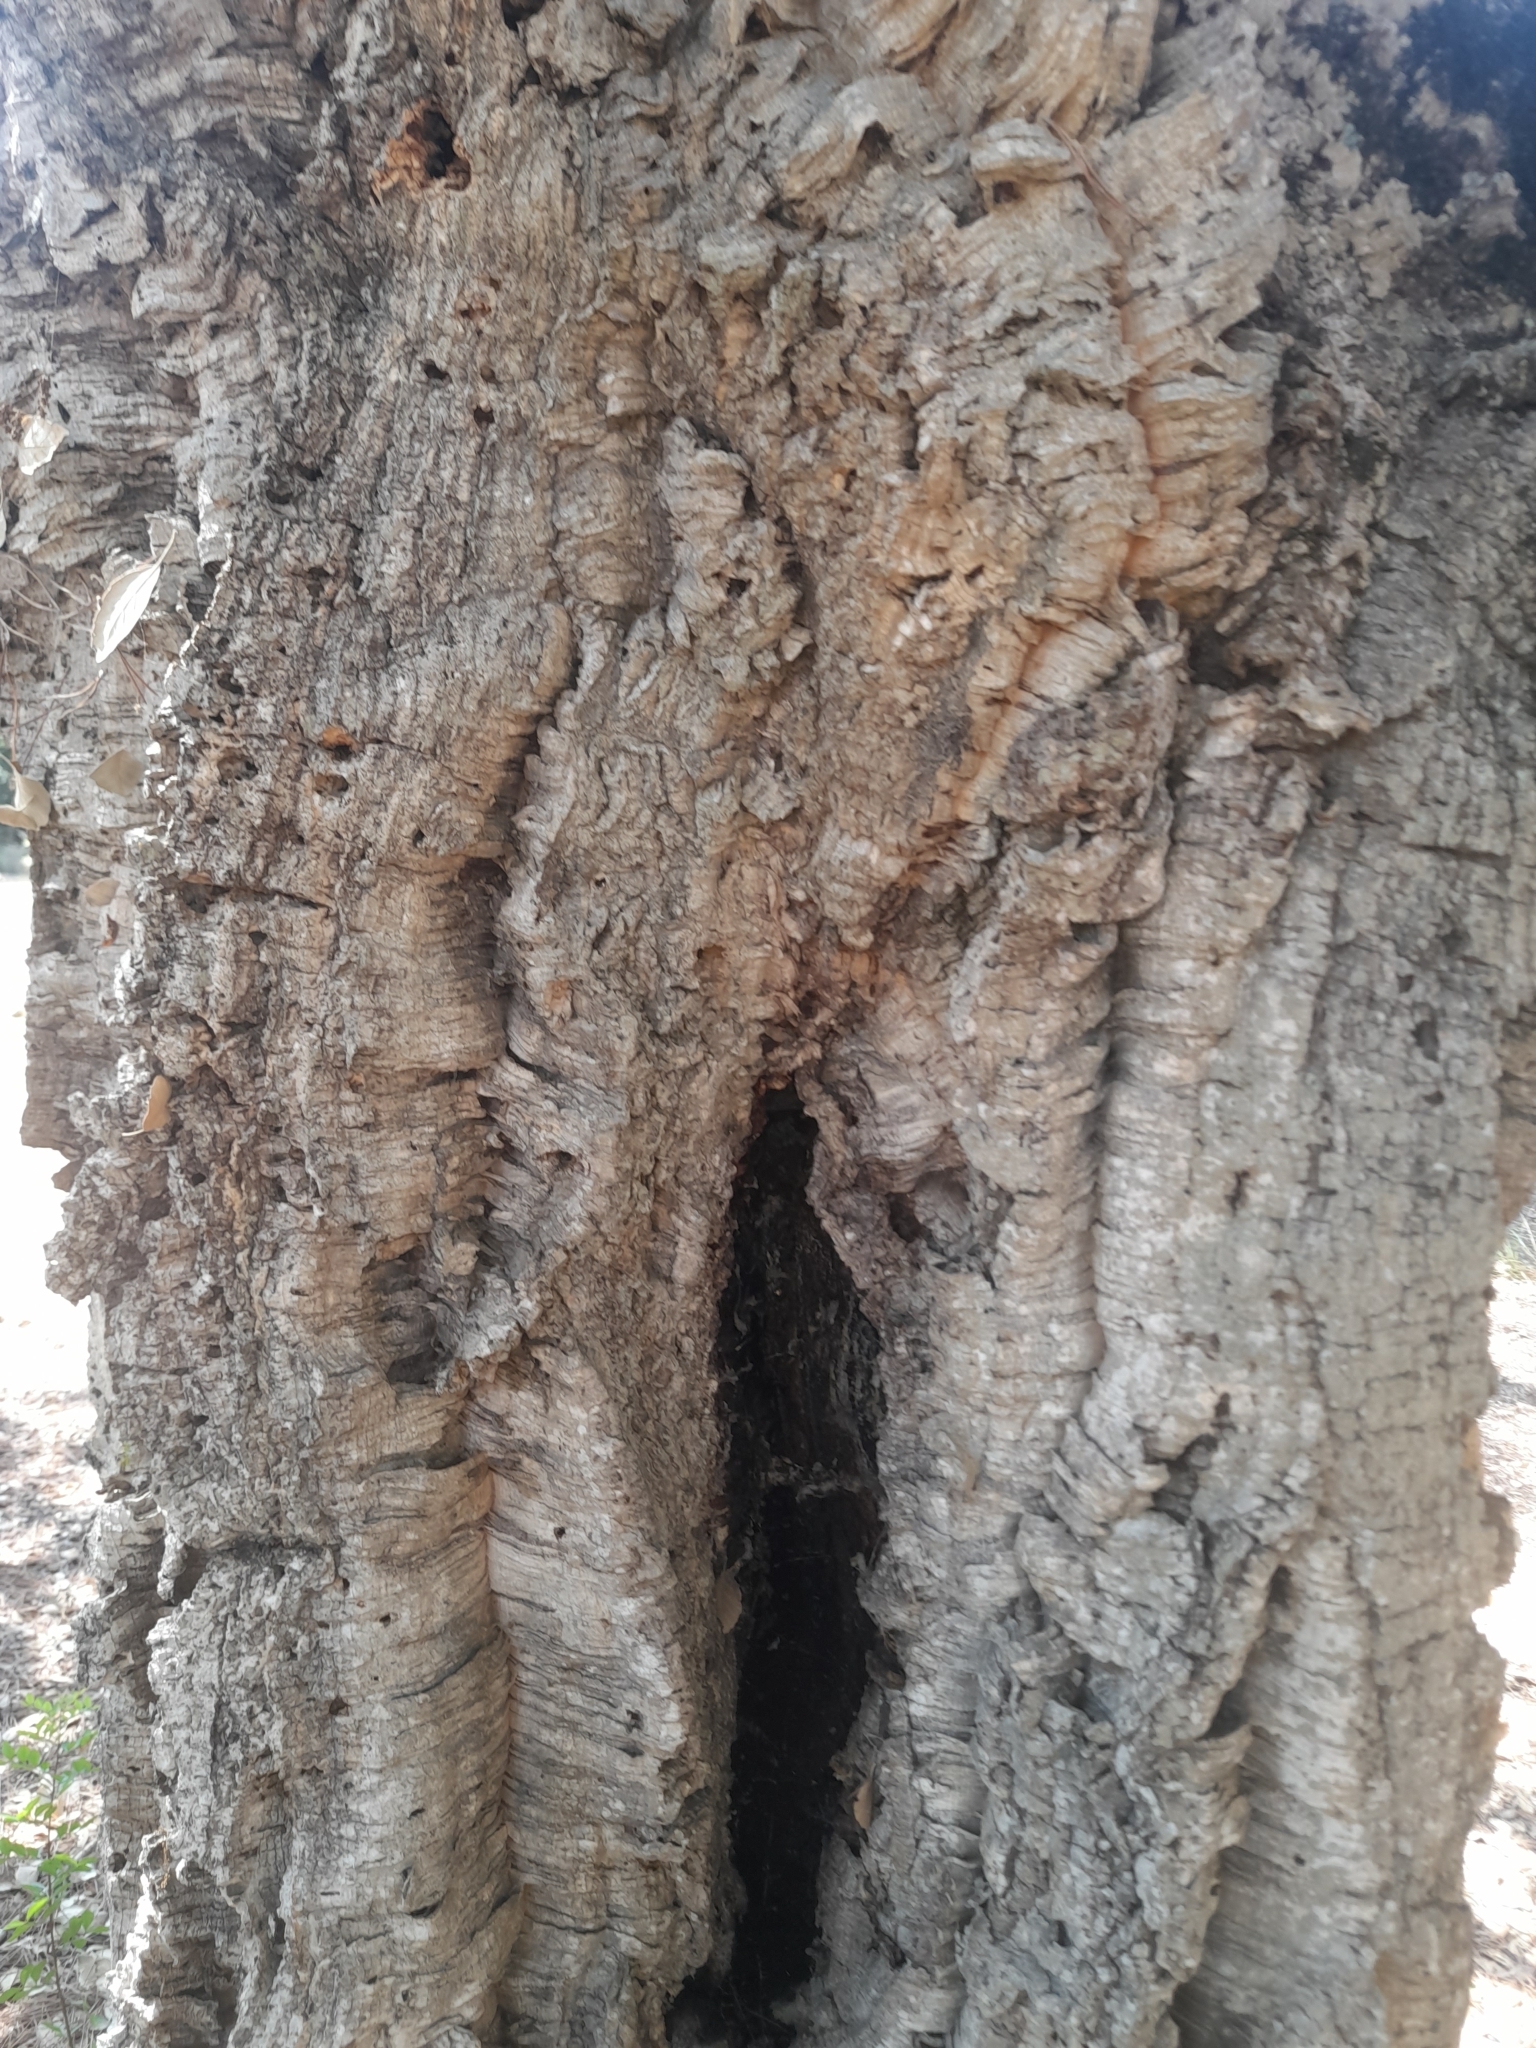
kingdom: Plantae
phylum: Tracheophyta
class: Magnoliopsida
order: Fagales
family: Fagaceae
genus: Quercus
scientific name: Quercus suber
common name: Cork oak
